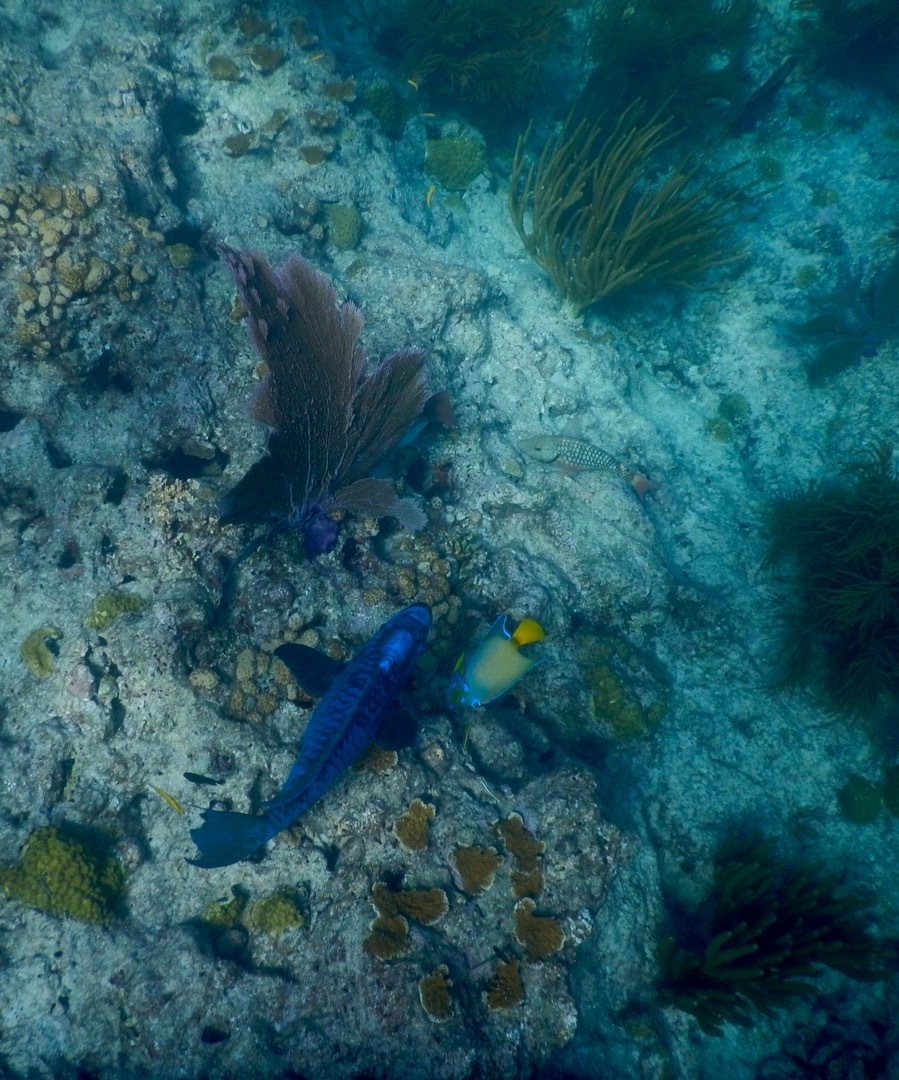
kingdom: Animalia
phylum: Chordata
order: Perciformes
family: Scaridae
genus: Scarus
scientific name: Scarus coelestinus
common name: Midnight parrotfish
